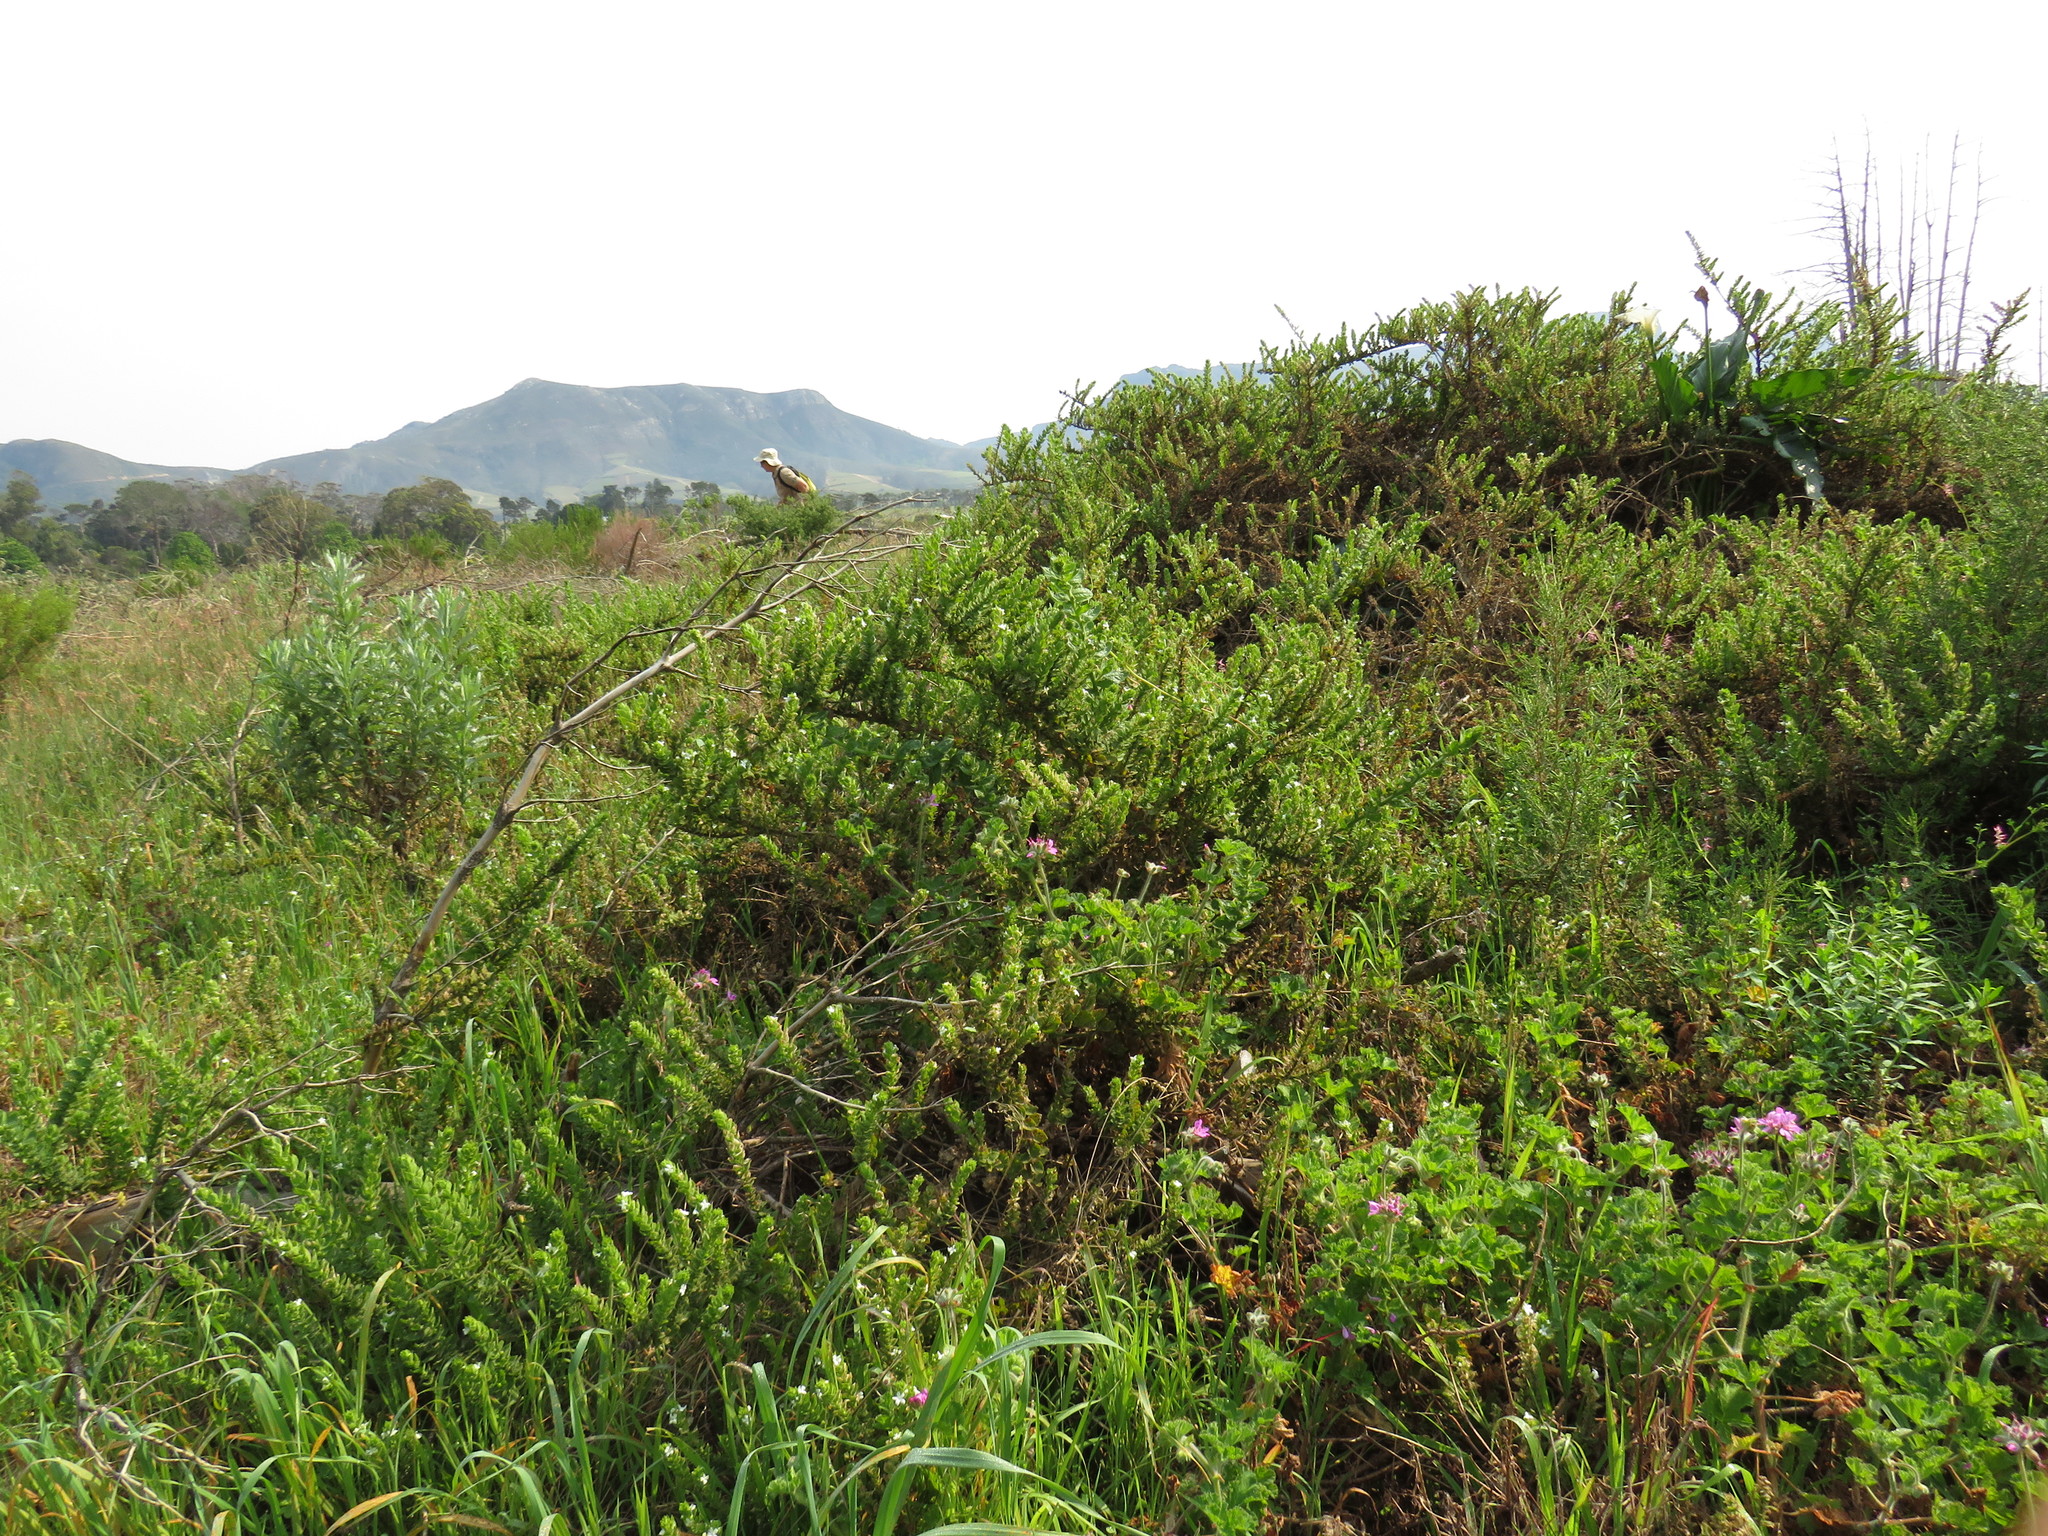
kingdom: Plantae
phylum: Tracheophyta
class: Magnoliopsida
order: Geraniales
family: Geraniaceae
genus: Pelargonium
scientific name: Pelargonium capitatum
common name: Rose scented geranium
